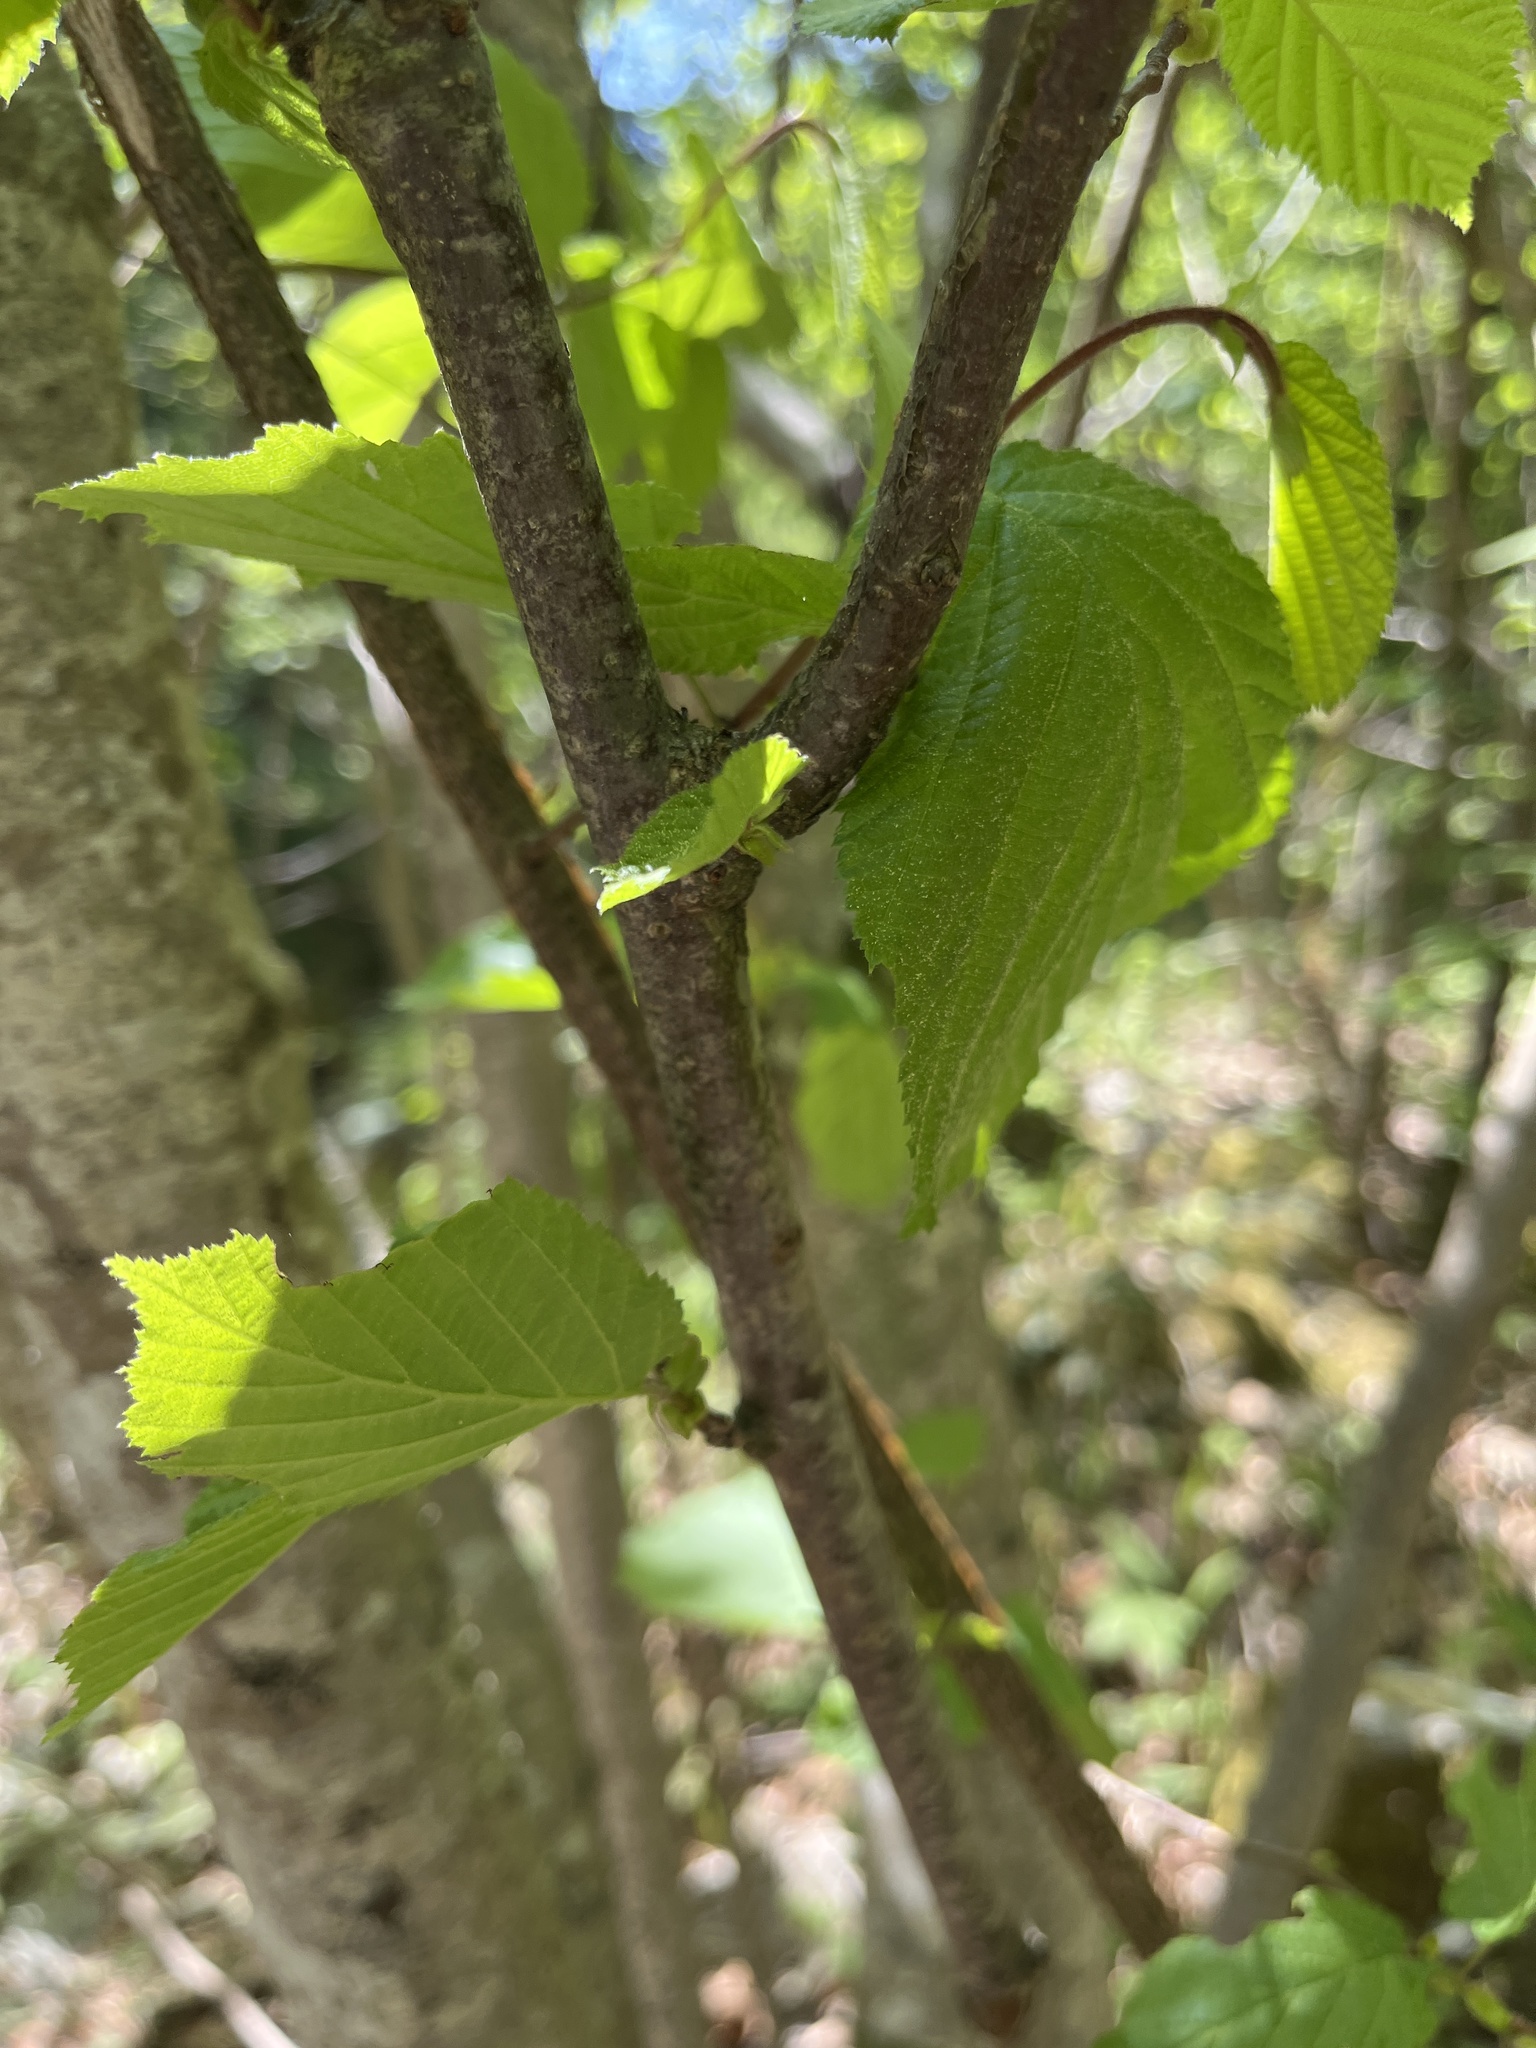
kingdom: Plantae
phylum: Tracheophyta
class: Magnoliopsida
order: Fagales
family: Betulaceae
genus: Corylus
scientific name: Corylus avellana
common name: European hazel
